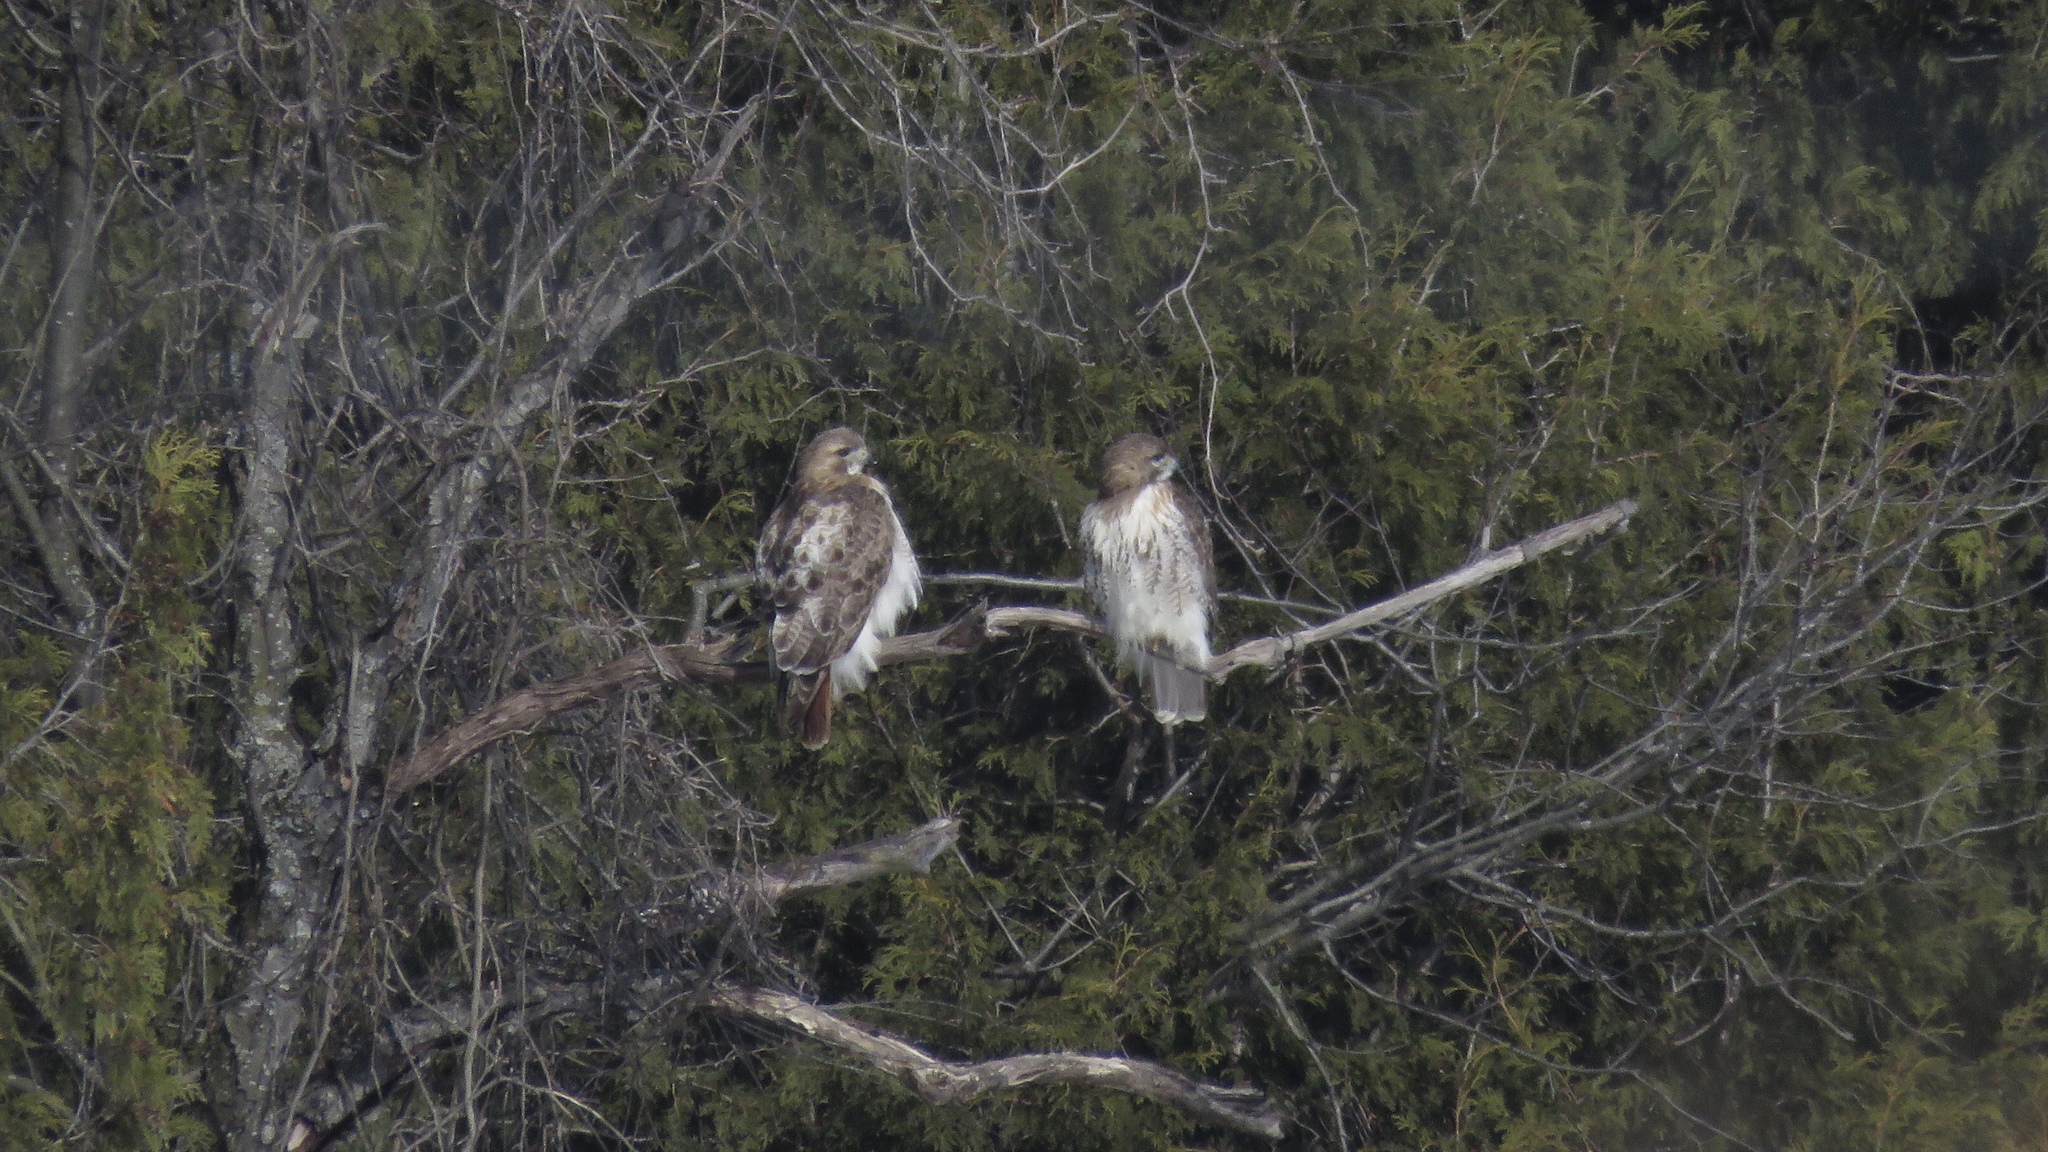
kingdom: Animalia
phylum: Chordata
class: Aves
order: Accipitriformes
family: Accipitridae
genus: Buteo
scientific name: Buteo jamaicensis
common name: Red-tailed hawk
